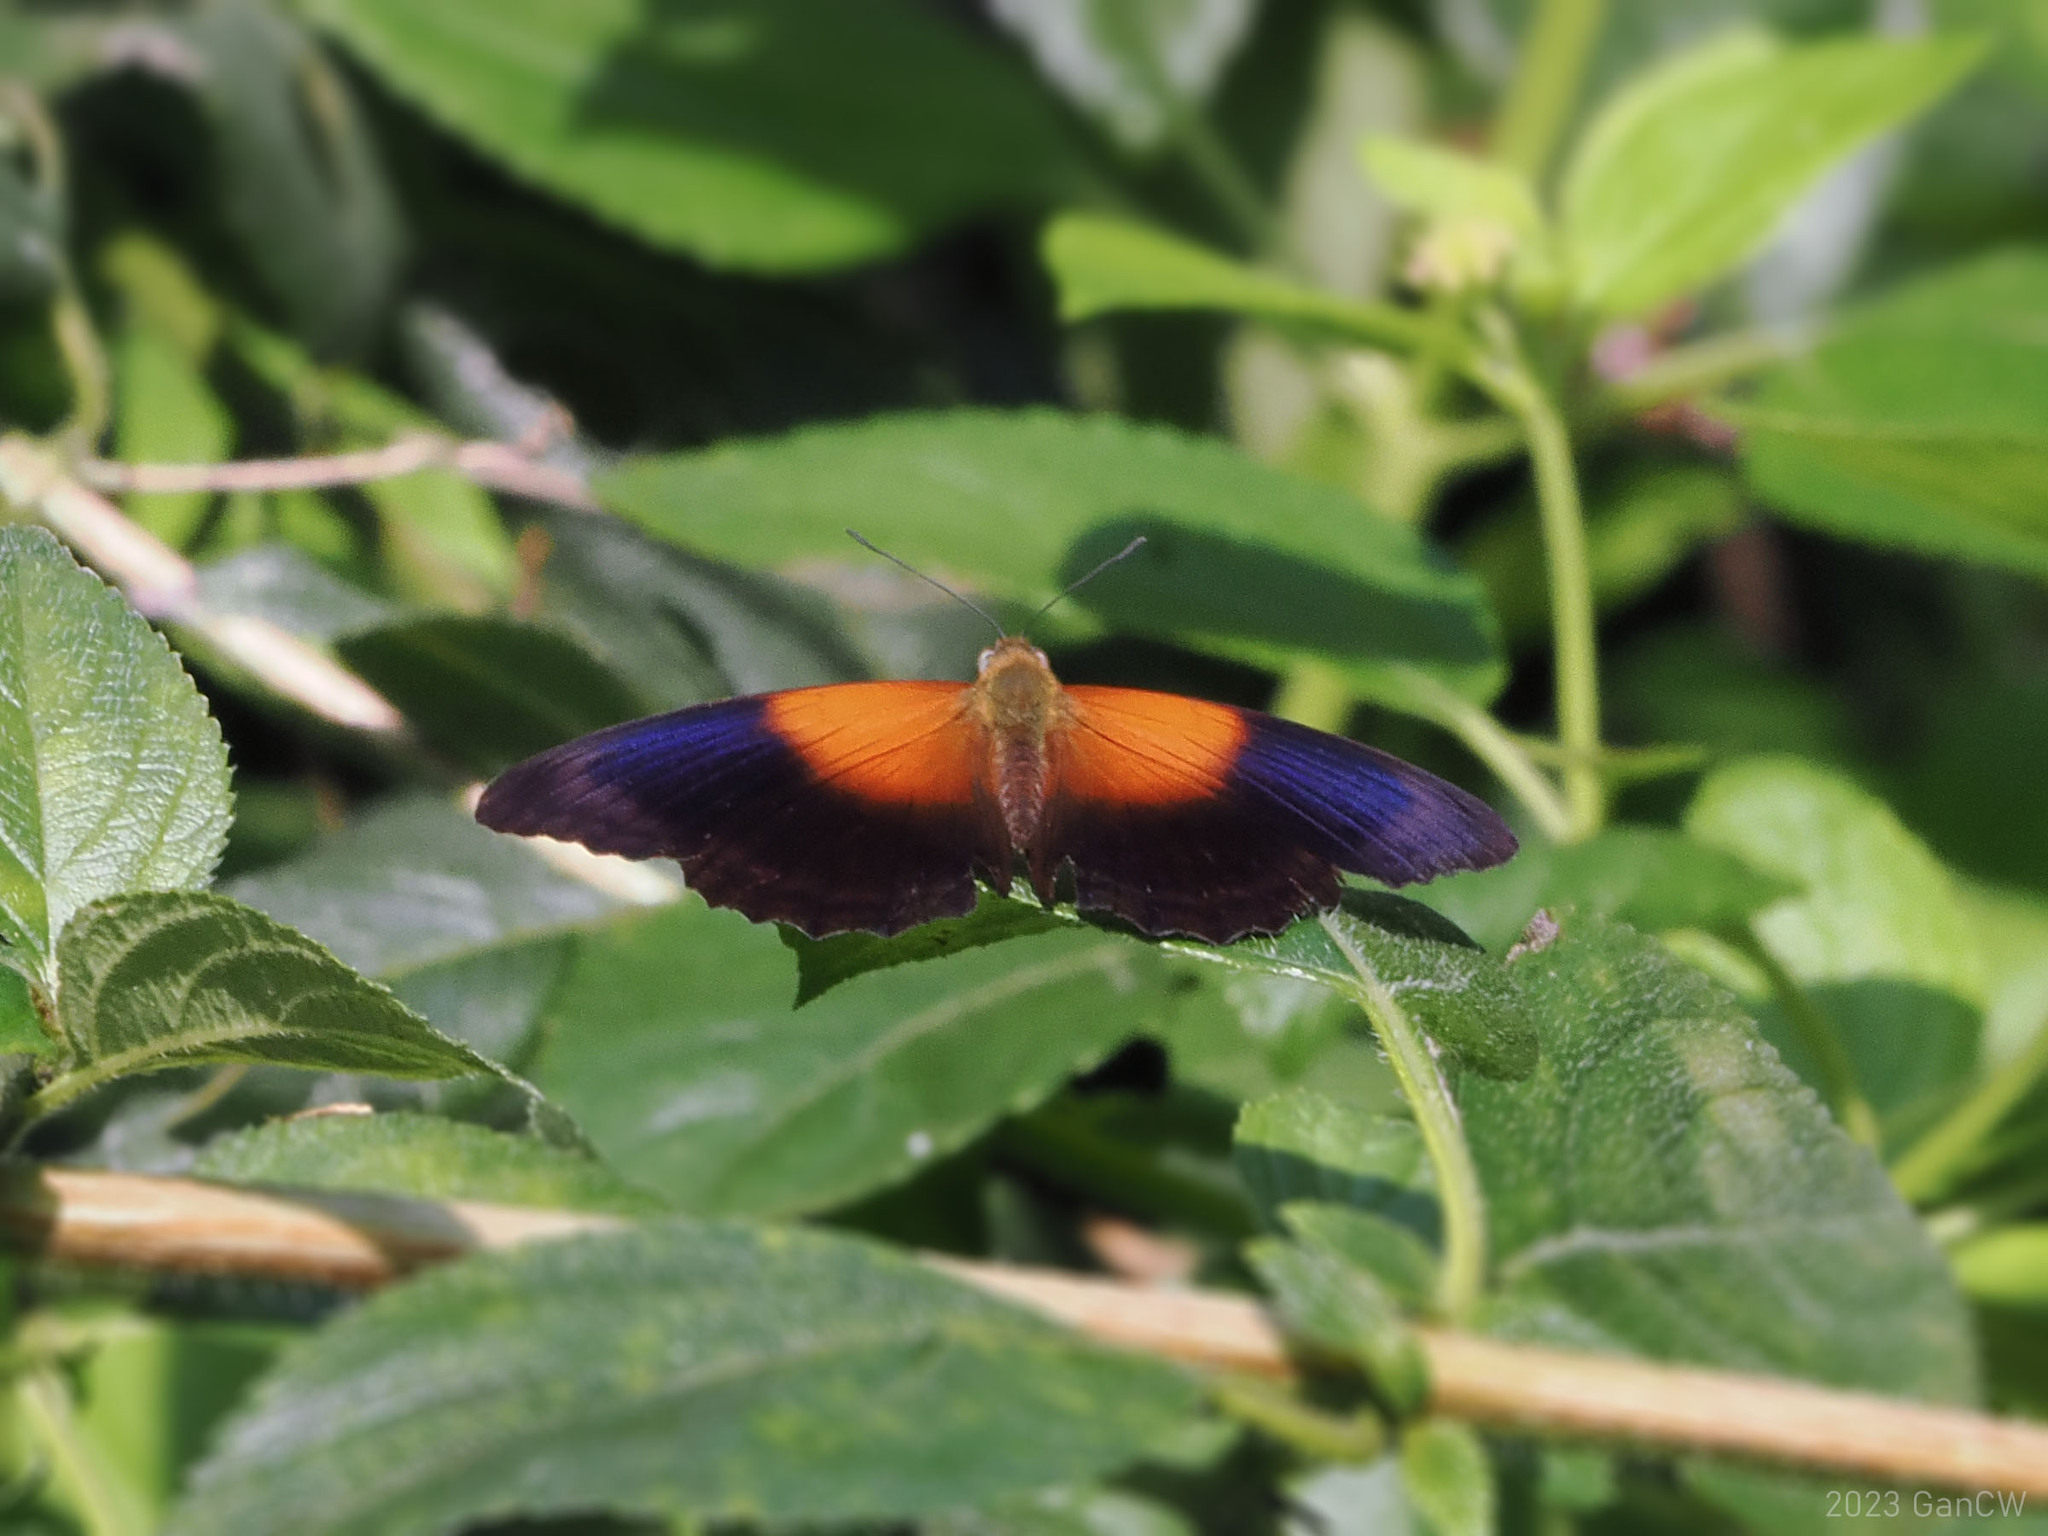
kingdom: Animalia
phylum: Arthropoda
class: Insecta
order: Lepidoptera
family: Nymphalidae
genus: Cirrochroa
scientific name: Cirrochroa regina
